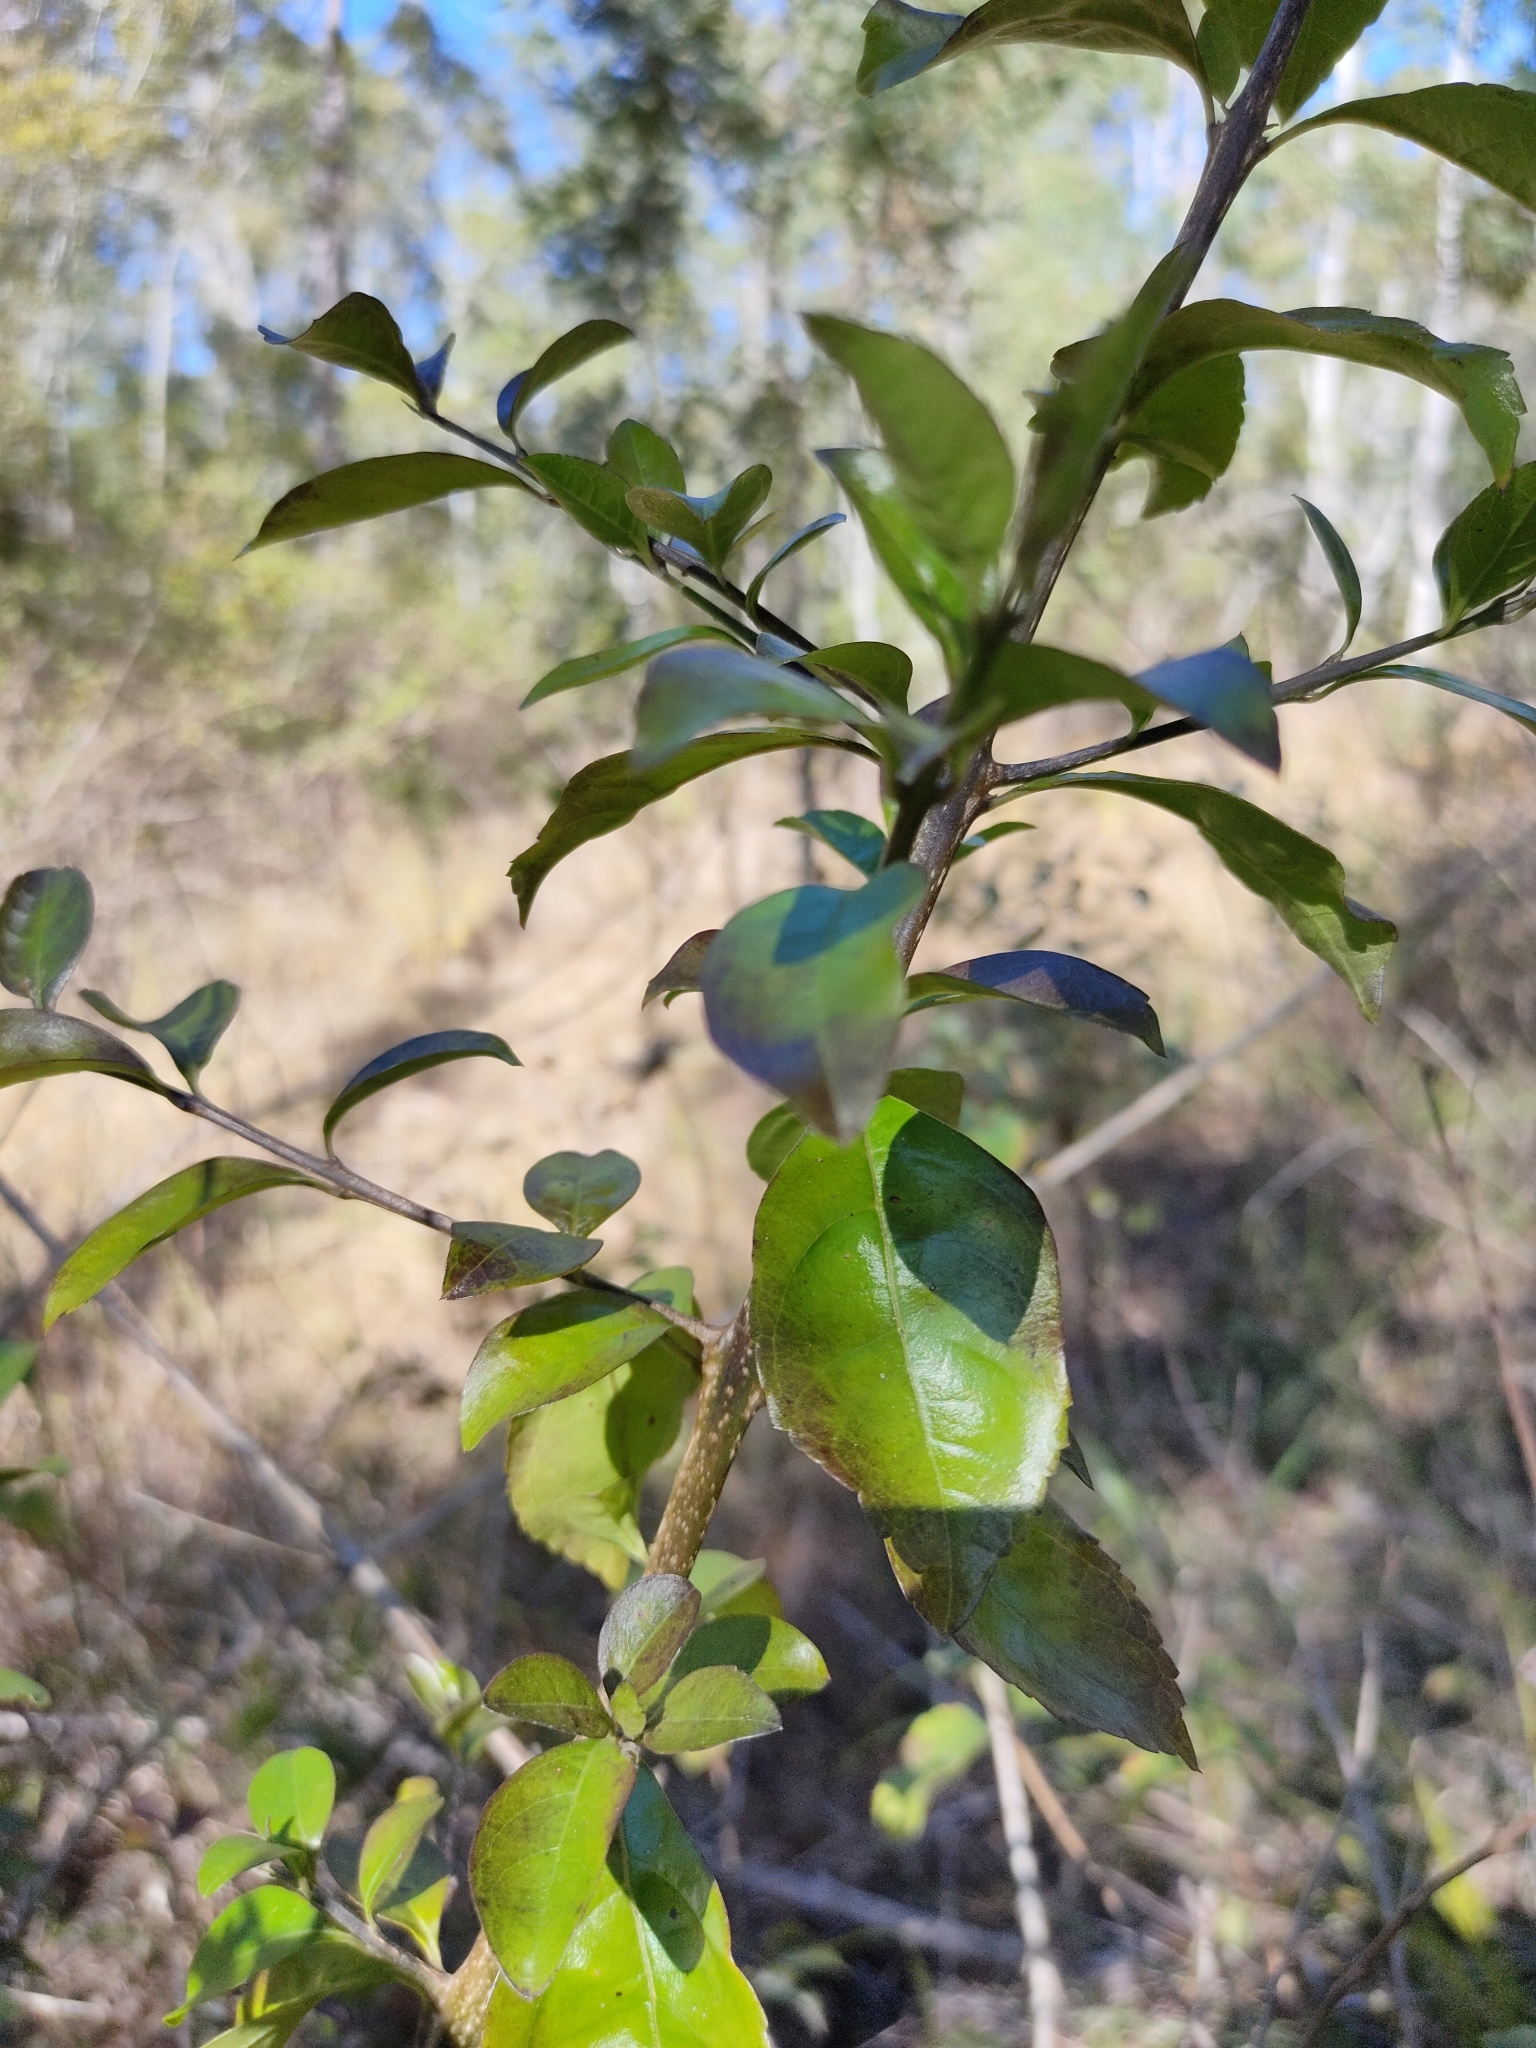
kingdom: Plantae
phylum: Tracheophyta
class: Magnoliopsida
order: Lamiales
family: Verbenaceae
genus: Duranta
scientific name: Duranta erecta
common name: Golden dewdrops
